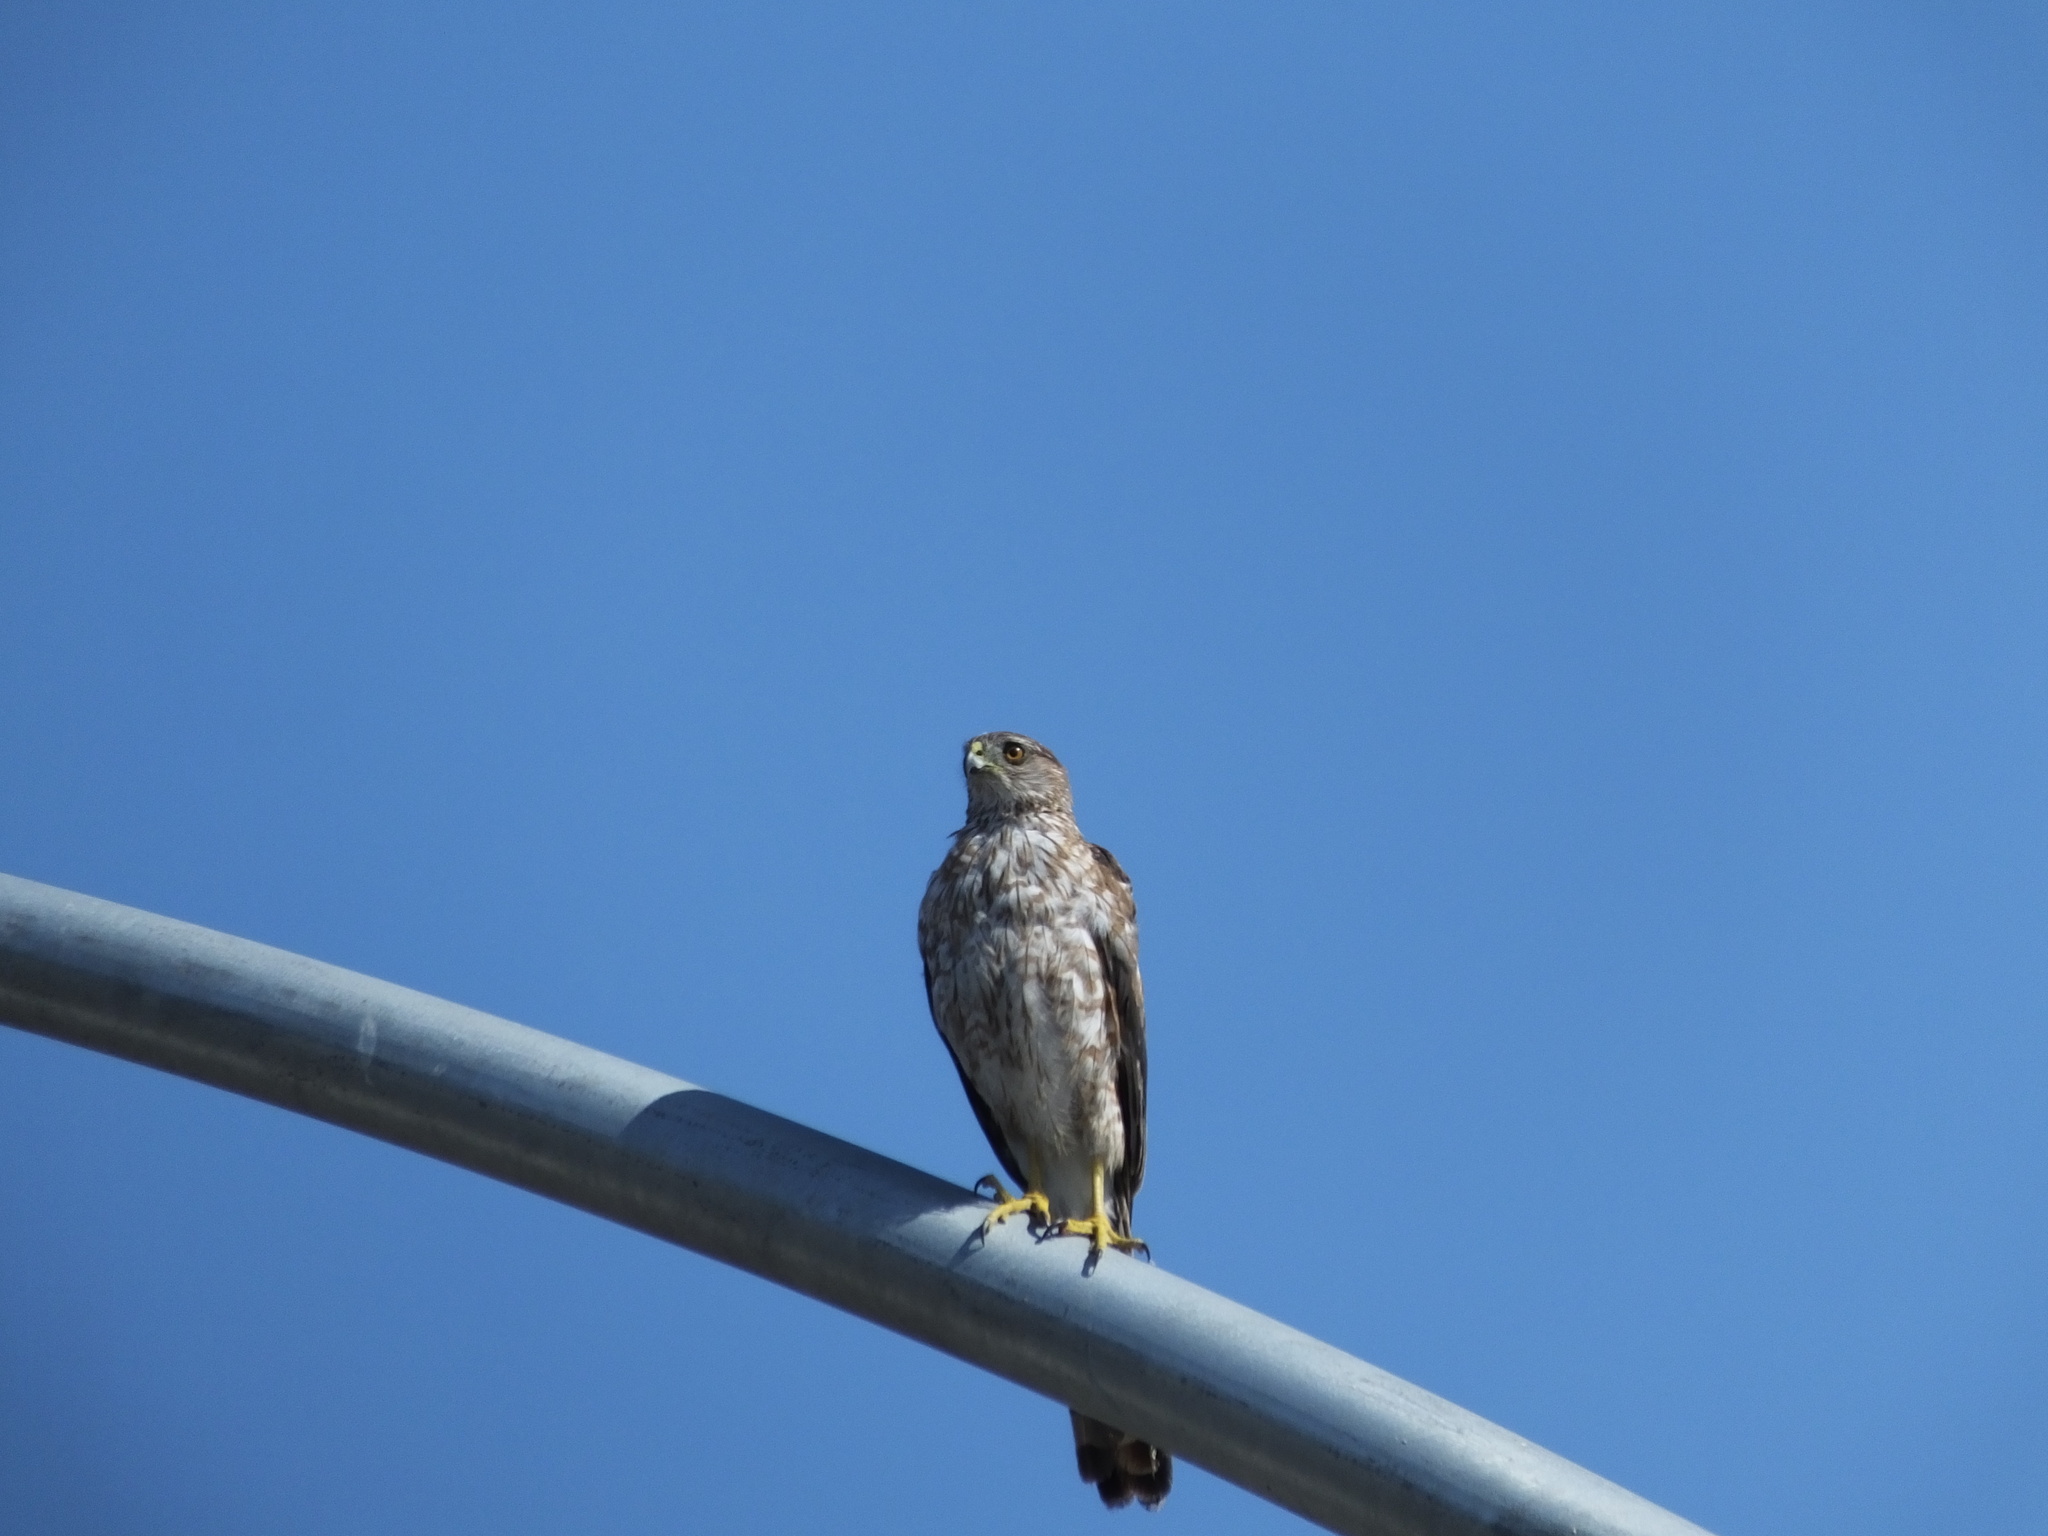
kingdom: Animalia
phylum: Chordata
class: Aves
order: Accipitriformes
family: Accipitridae
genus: Accipiter
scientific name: Accipiter cooperii
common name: Cooper's hawk
